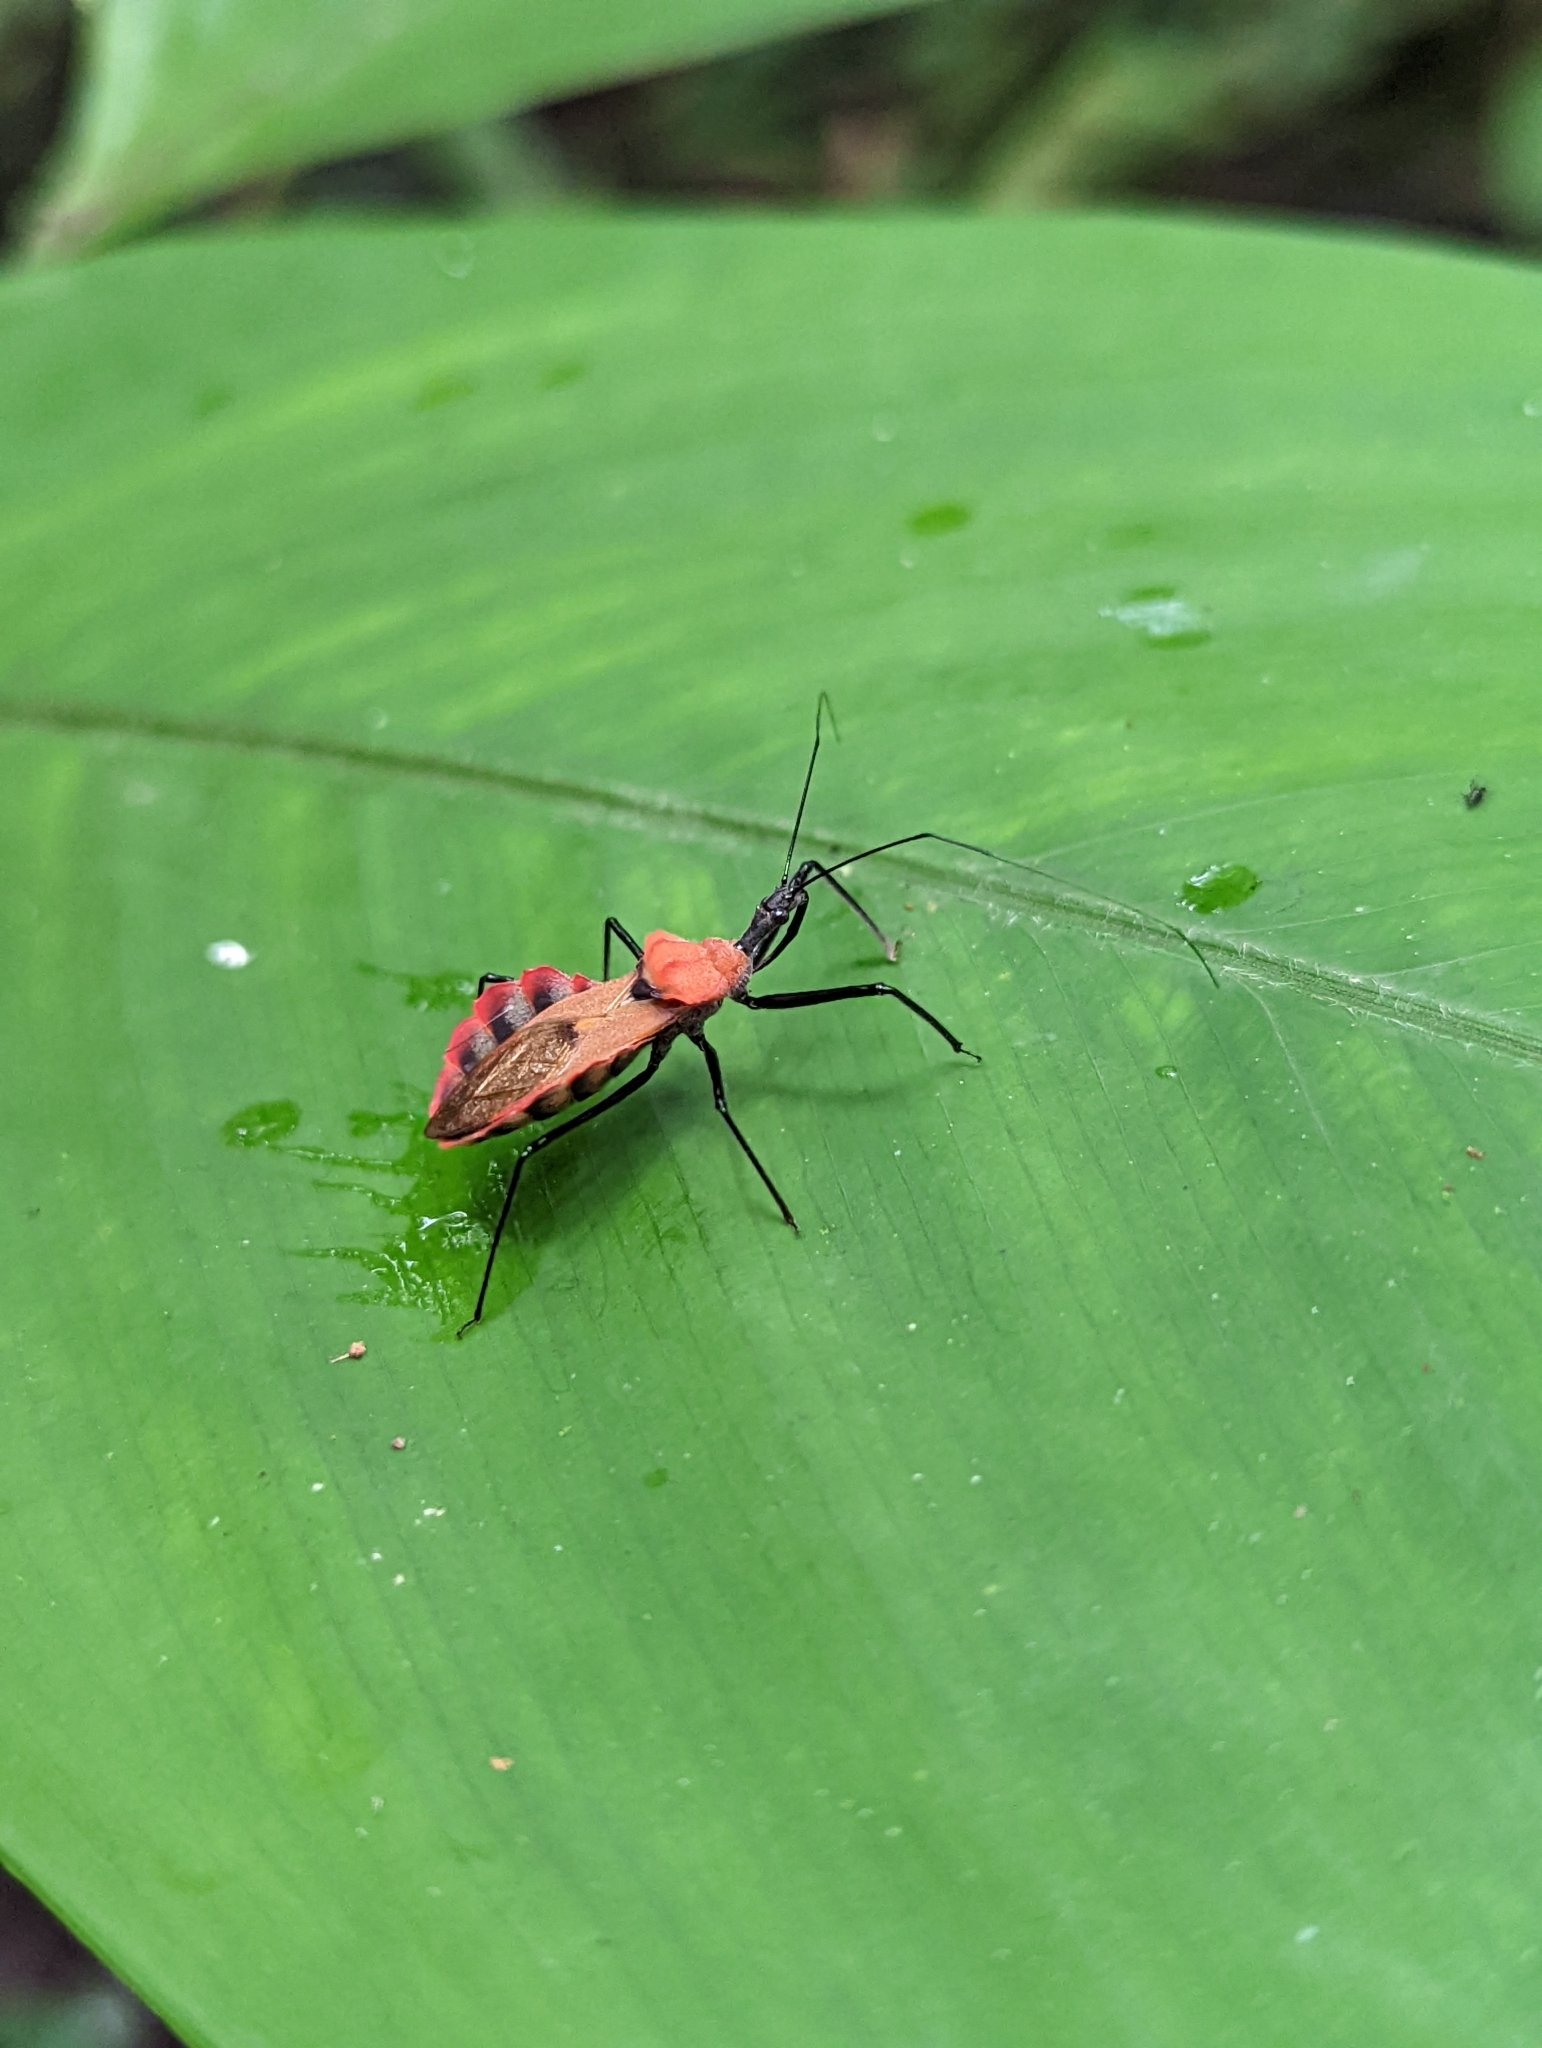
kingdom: Animalia
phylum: Arthropoda
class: Insecta
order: Hemiptera
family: Reduviidae
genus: Montina
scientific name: Montina scutellaris
